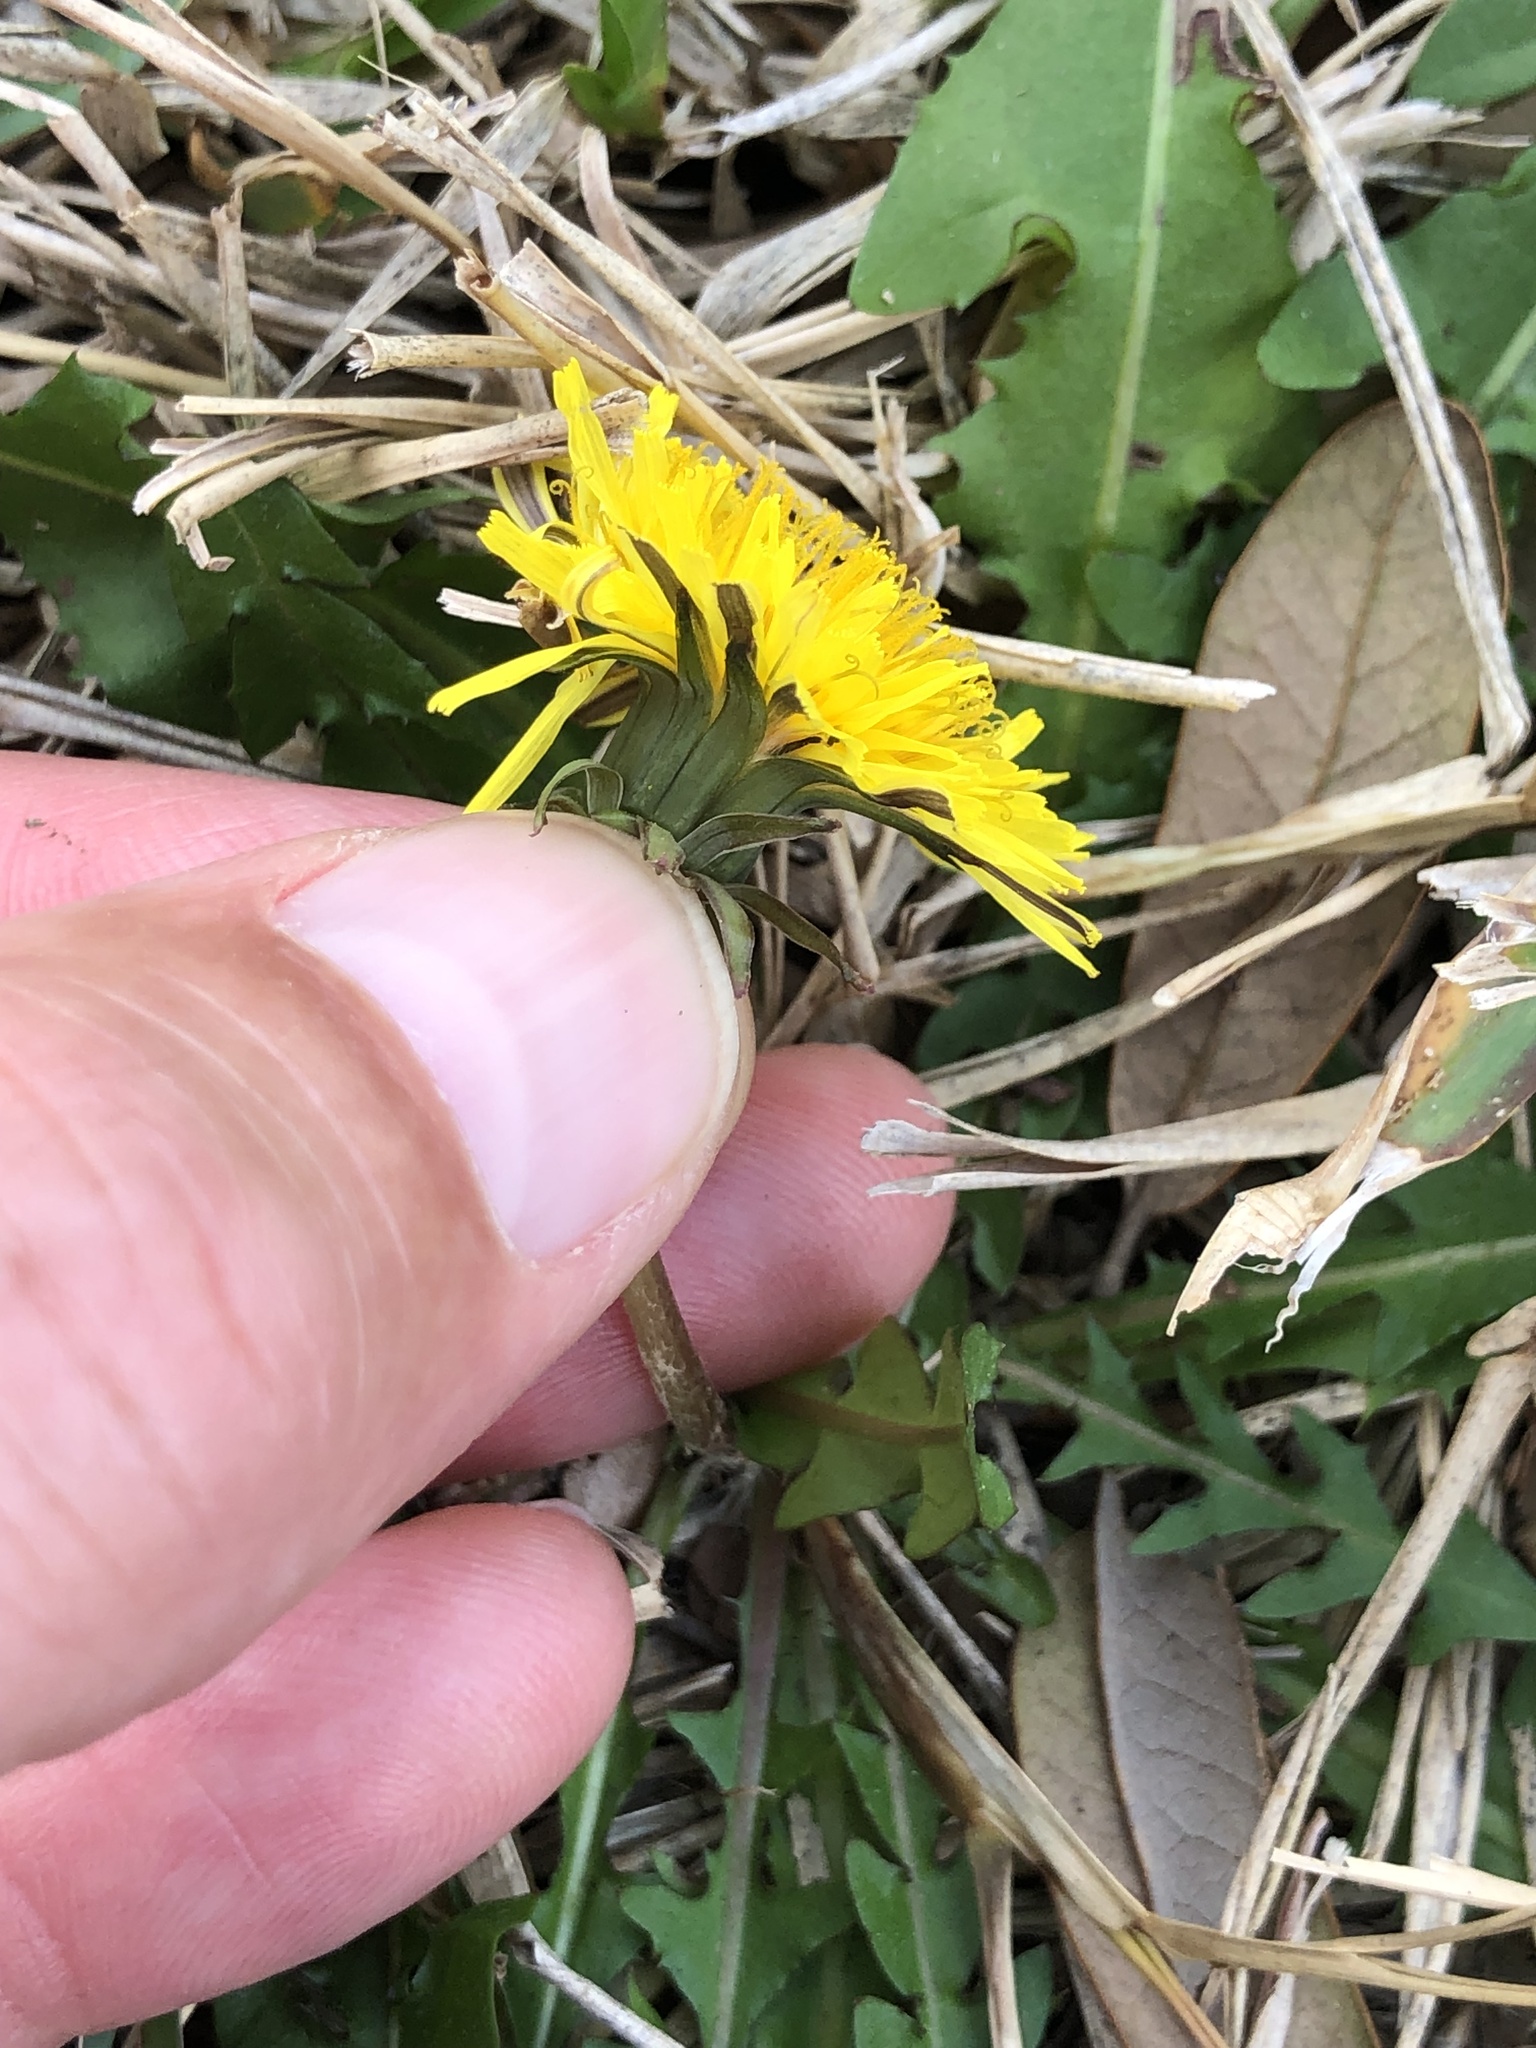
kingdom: Plantae
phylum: Tracheophyta
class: Magnoliopsida
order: Asterales
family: Asteraceae
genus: Taraxacum
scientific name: Taraxacum
